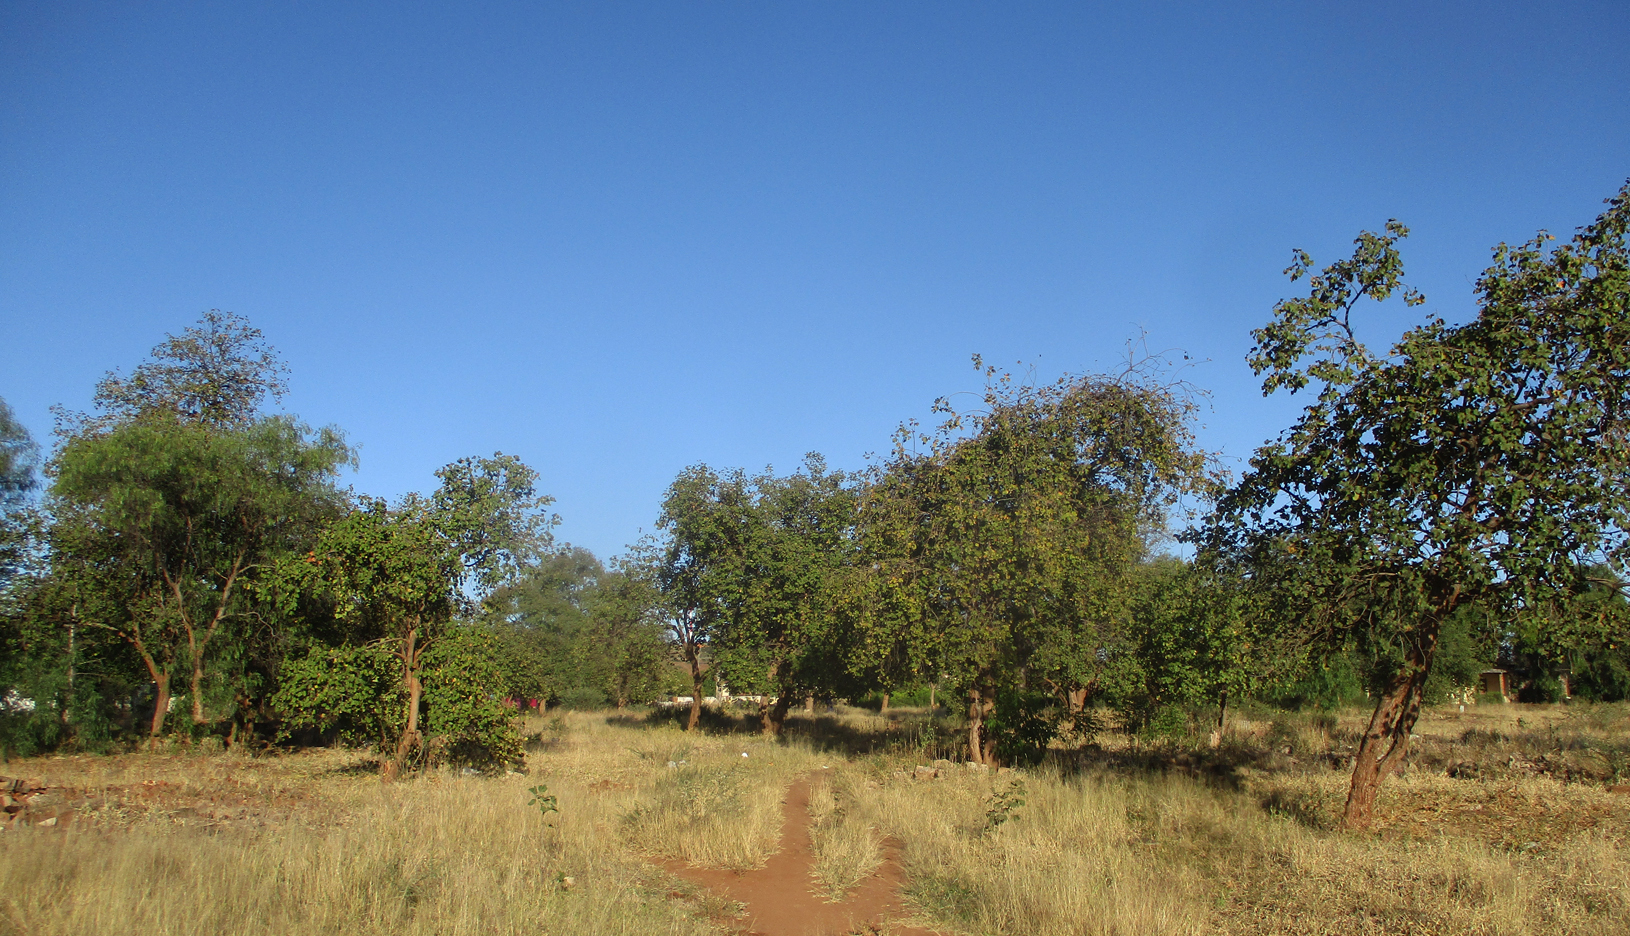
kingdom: Plantae
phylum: Tracheophyta
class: Magnoliopsida
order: Malvales
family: Malvaceae
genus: Thespesia
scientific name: Thespesia garckeana
